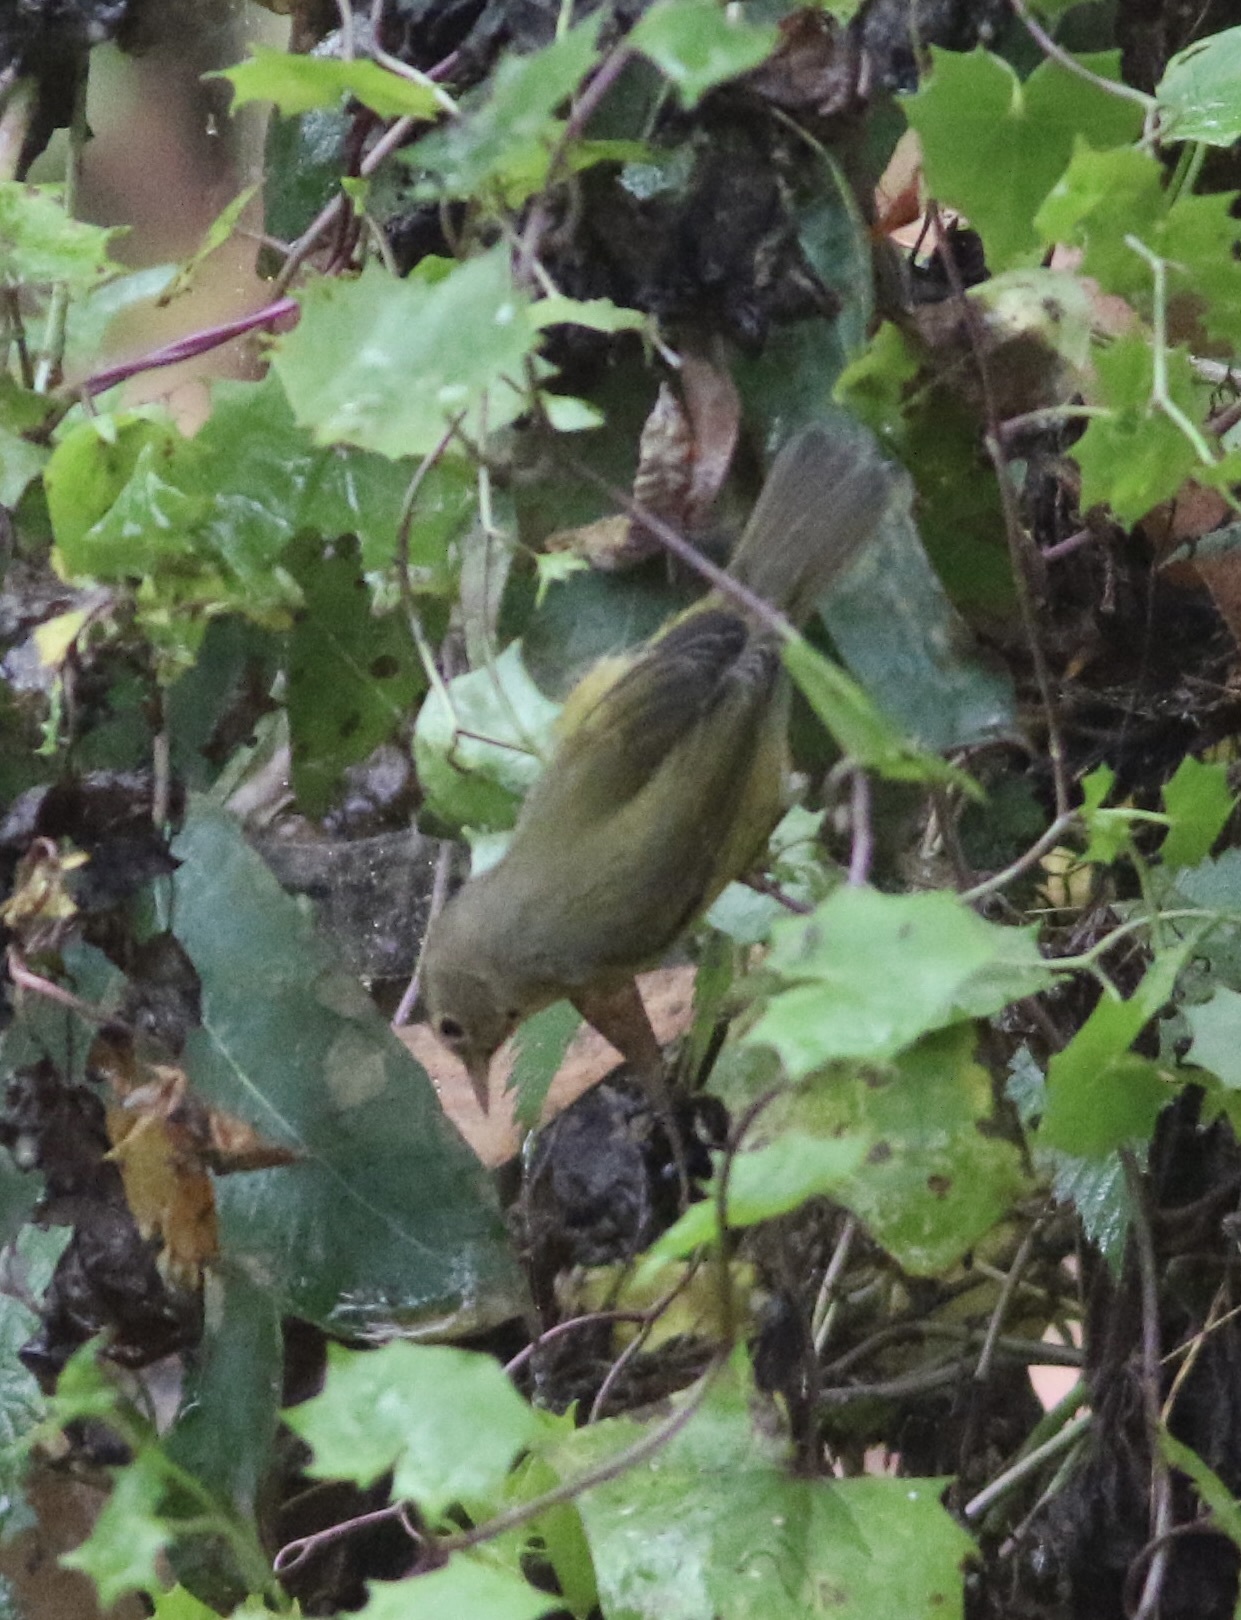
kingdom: Animalia
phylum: Chordata
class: Aves
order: Passeriformes
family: Parulidae
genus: Leiothlypis
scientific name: Leiothlypis celata
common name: Orange-crowned warbler
